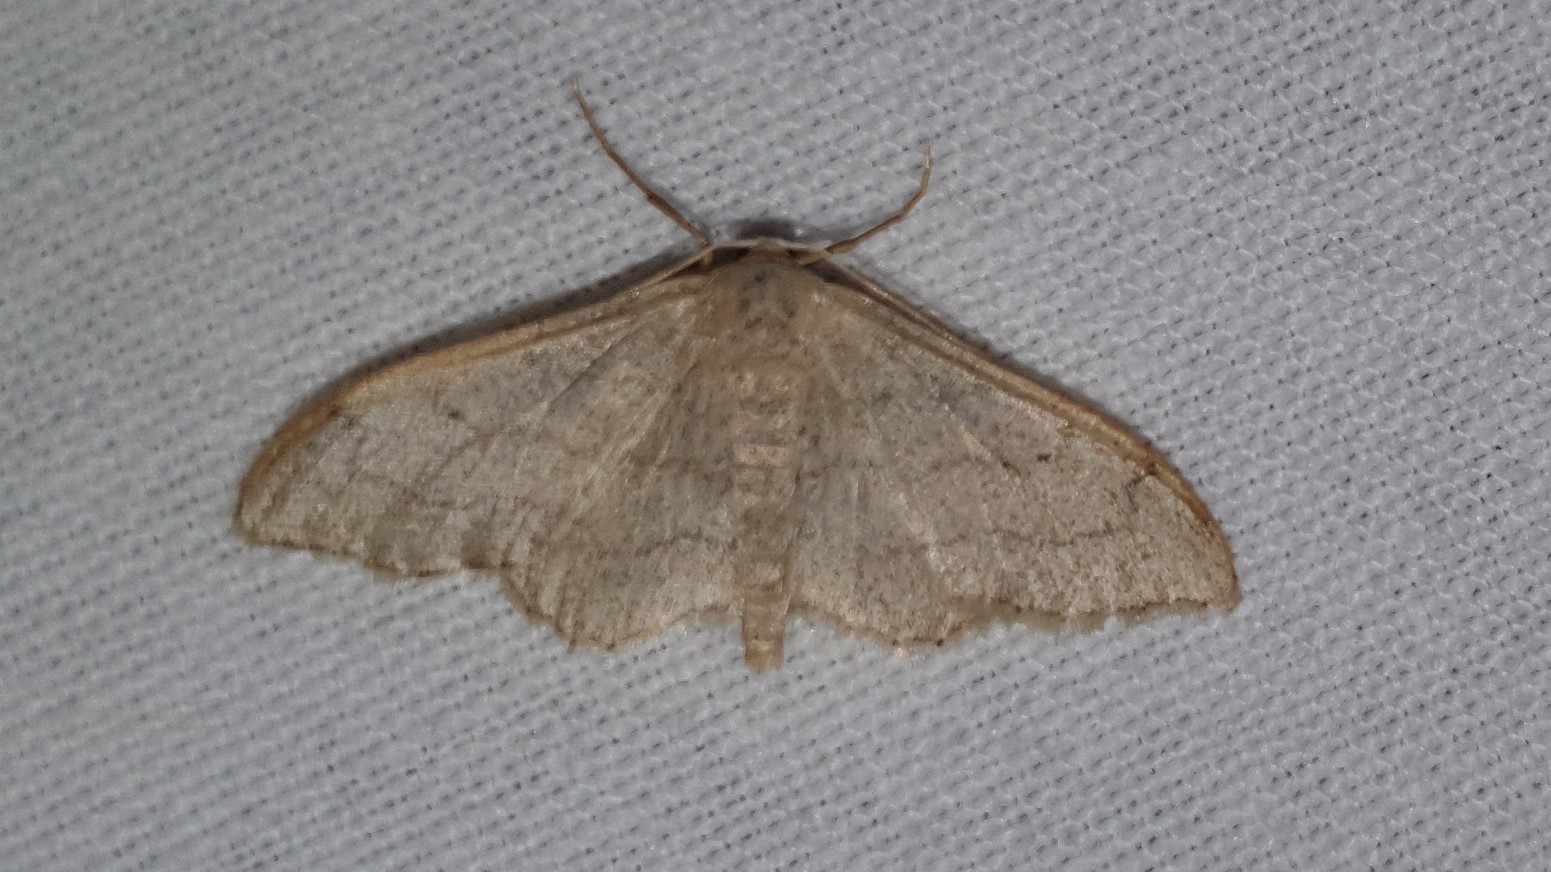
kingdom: Animalia
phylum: Arthropoda
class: Insecta
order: Lepidoptera
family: Geometridae
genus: Idaea
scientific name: Idaea aversata
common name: Riband wave
